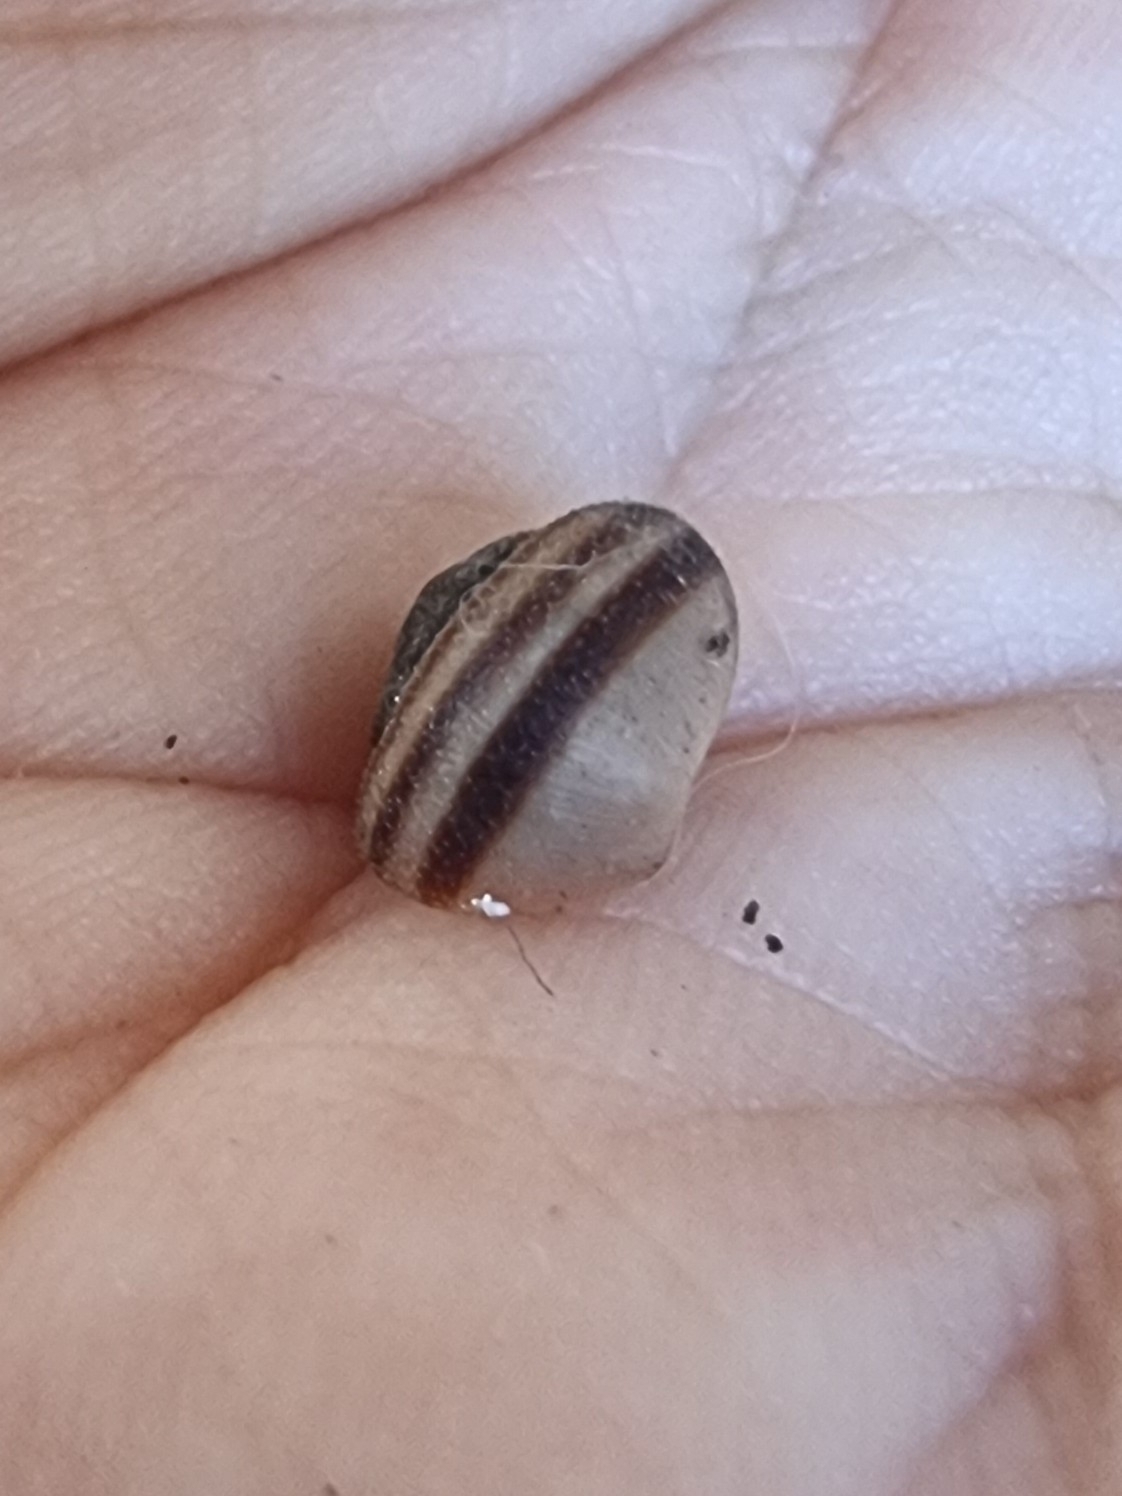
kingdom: Animalia
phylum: Mollusca
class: Gastropoda
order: Stylommatophora
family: Geomitridae
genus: Plebecula
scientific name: Plebecula nitidiuscula
